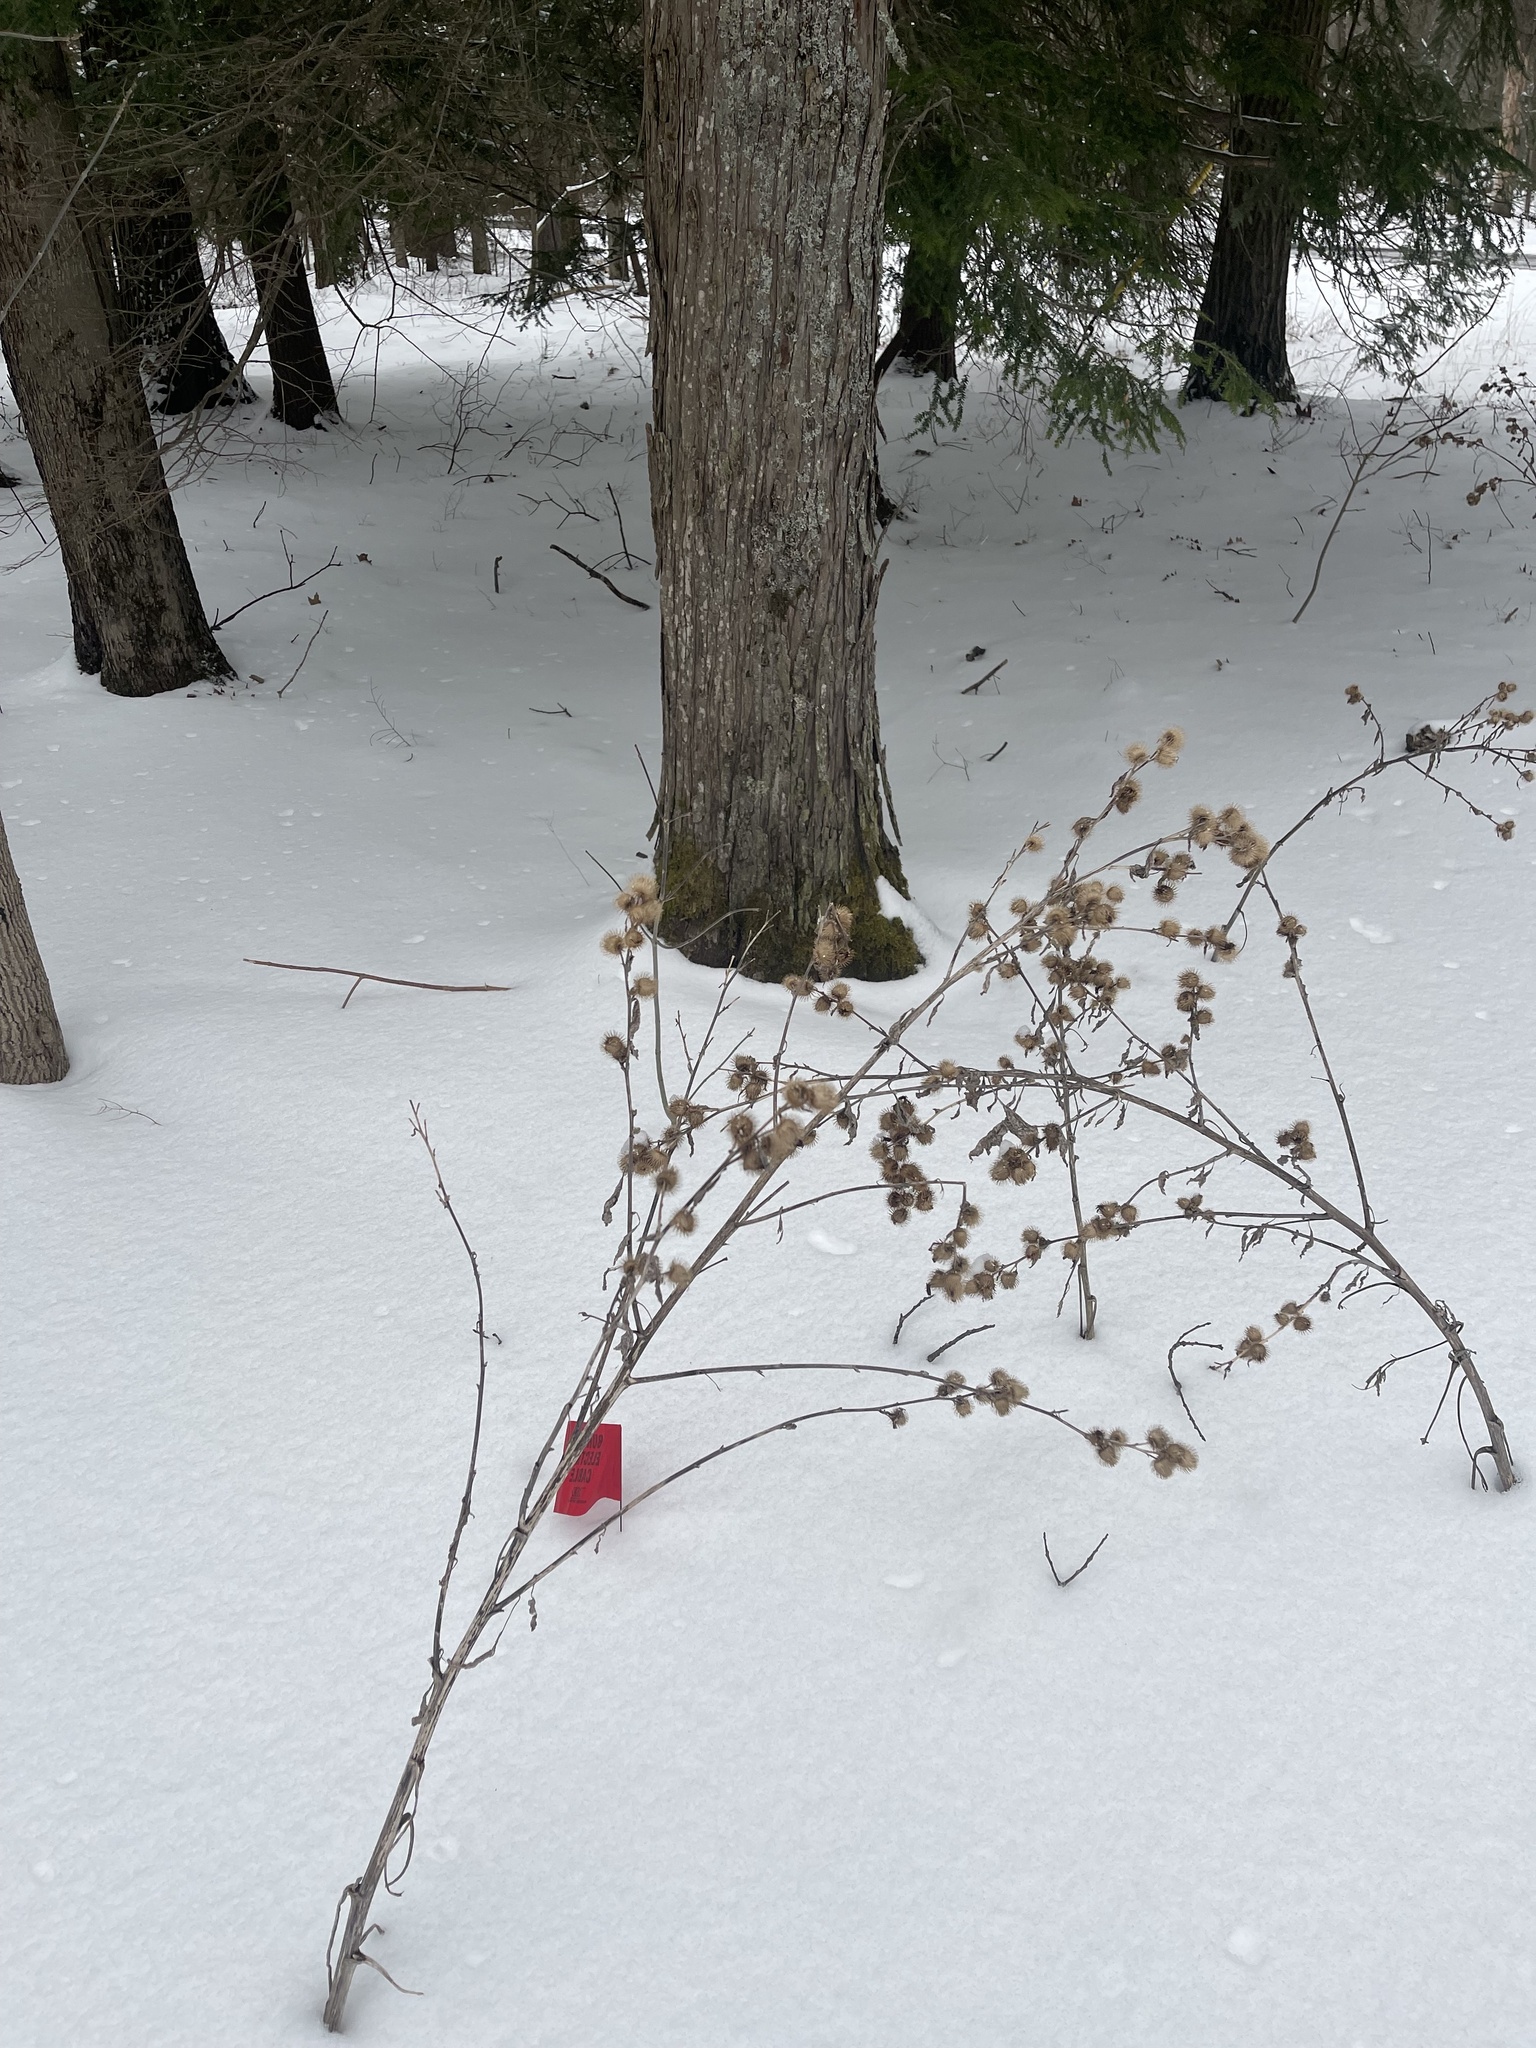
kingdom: Plantae
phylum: Tracheophyta
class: Magnoliopsida
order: Asterales
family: Asteraceae
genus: Arctium
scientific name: Arctium minus
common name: Lesser burdock
